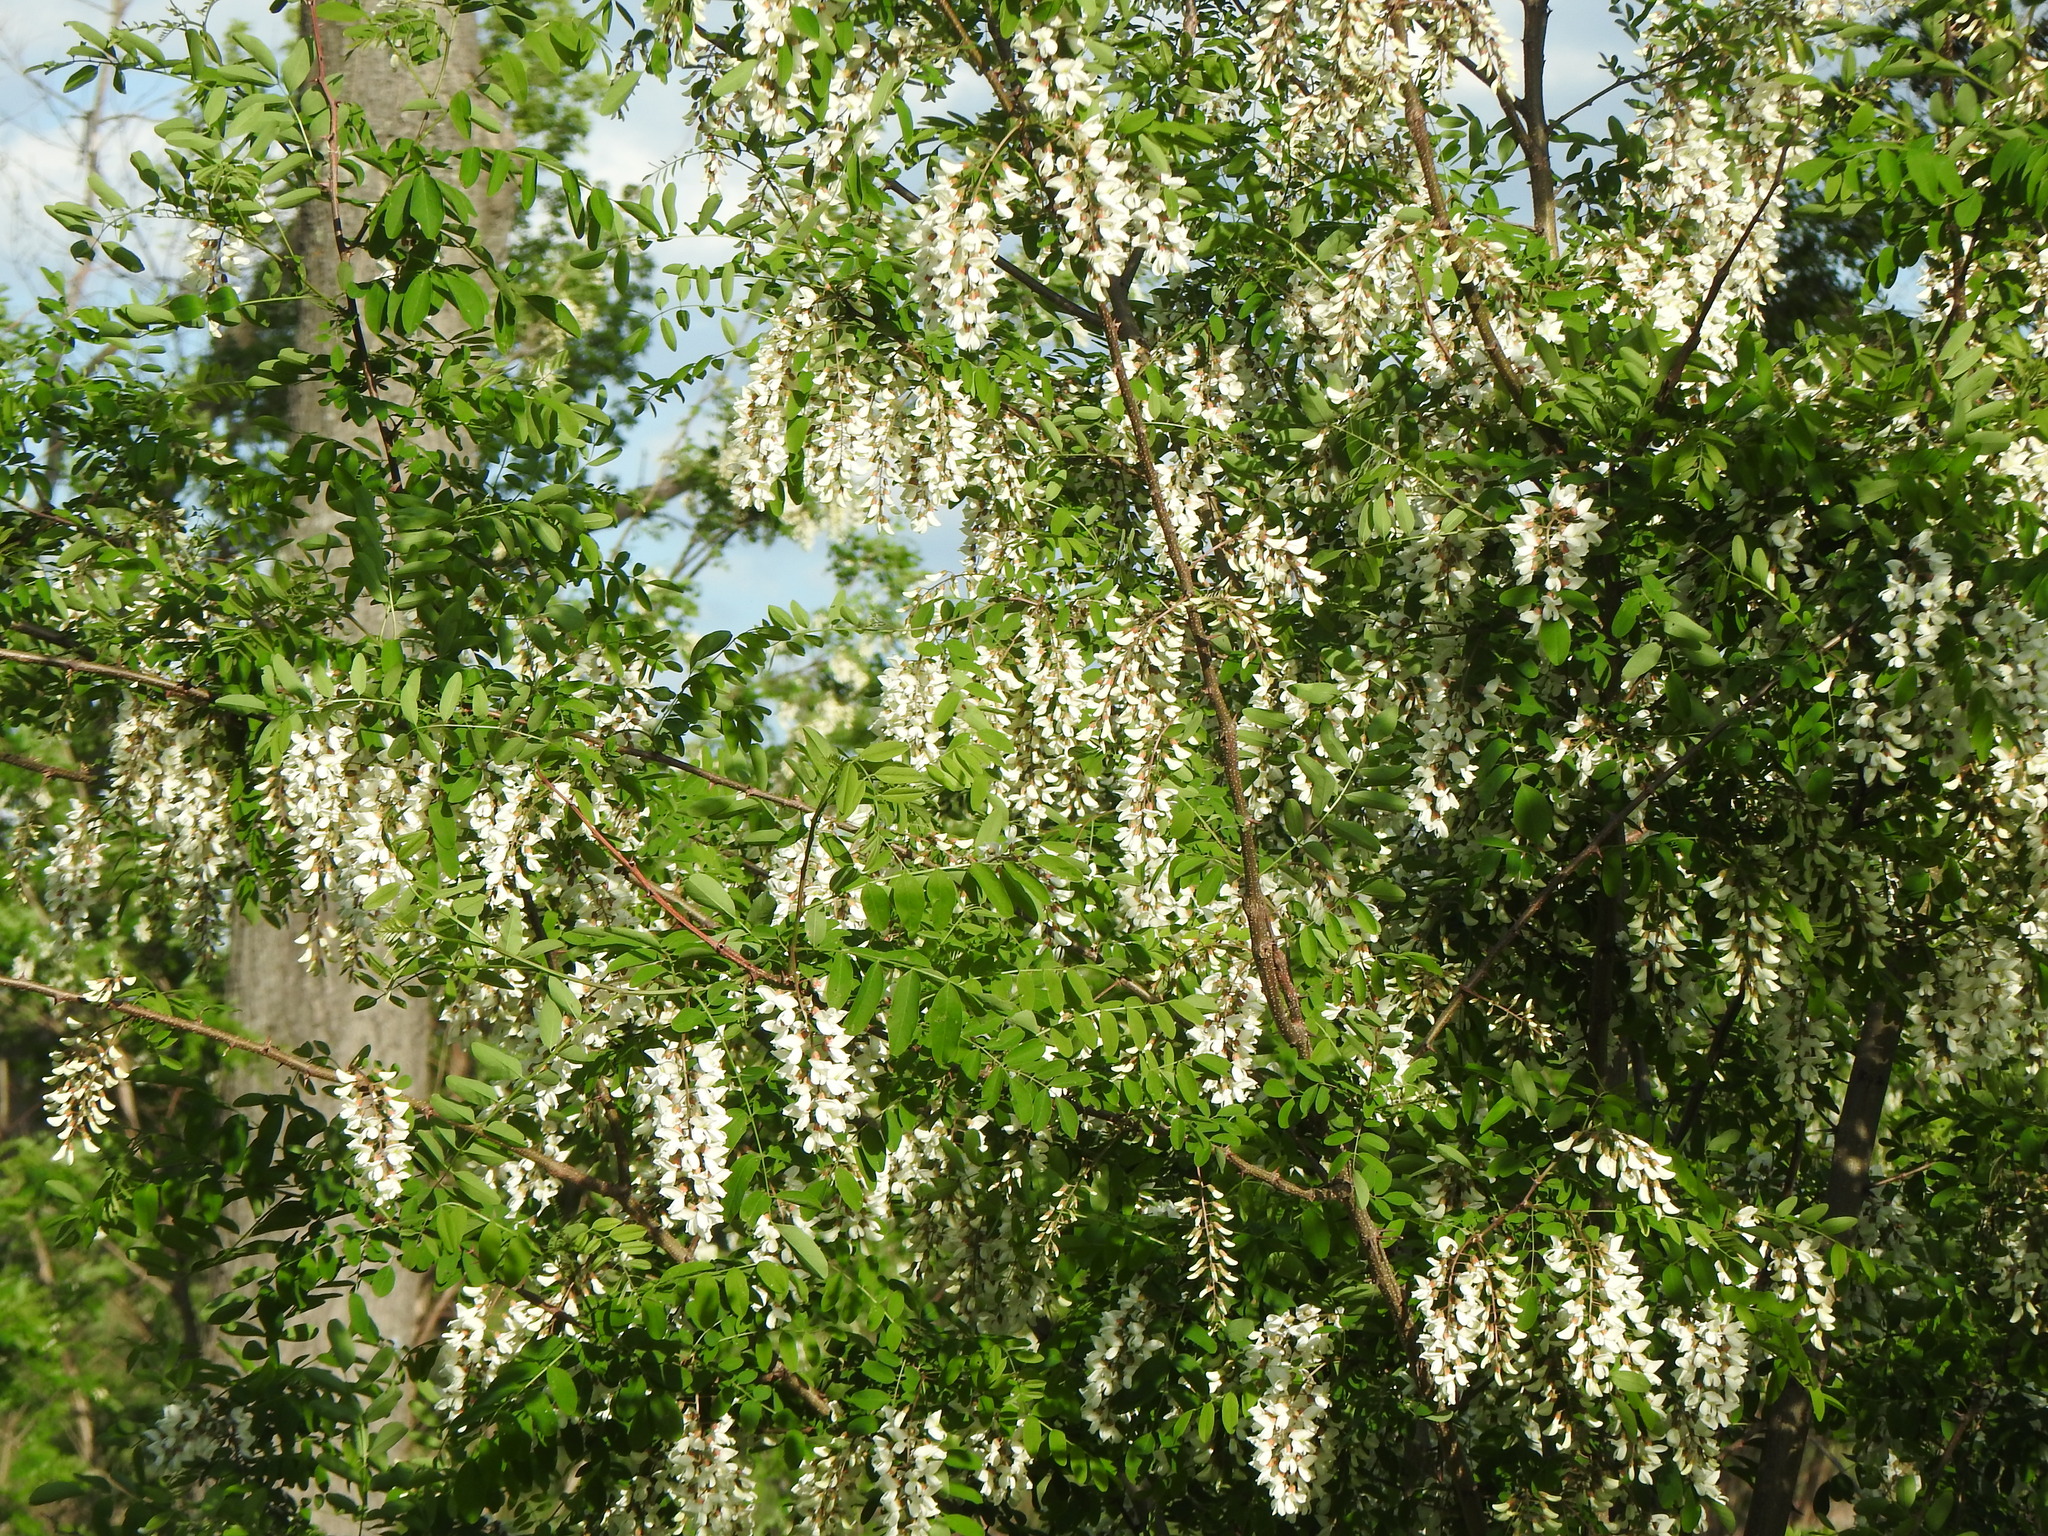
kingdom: Plantae
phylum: Tracheophyta
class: Magnoliopsida
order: Fabales
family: Fabaceae
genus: Robinia
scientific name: Robinia pseudoacacia
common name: Black locust
